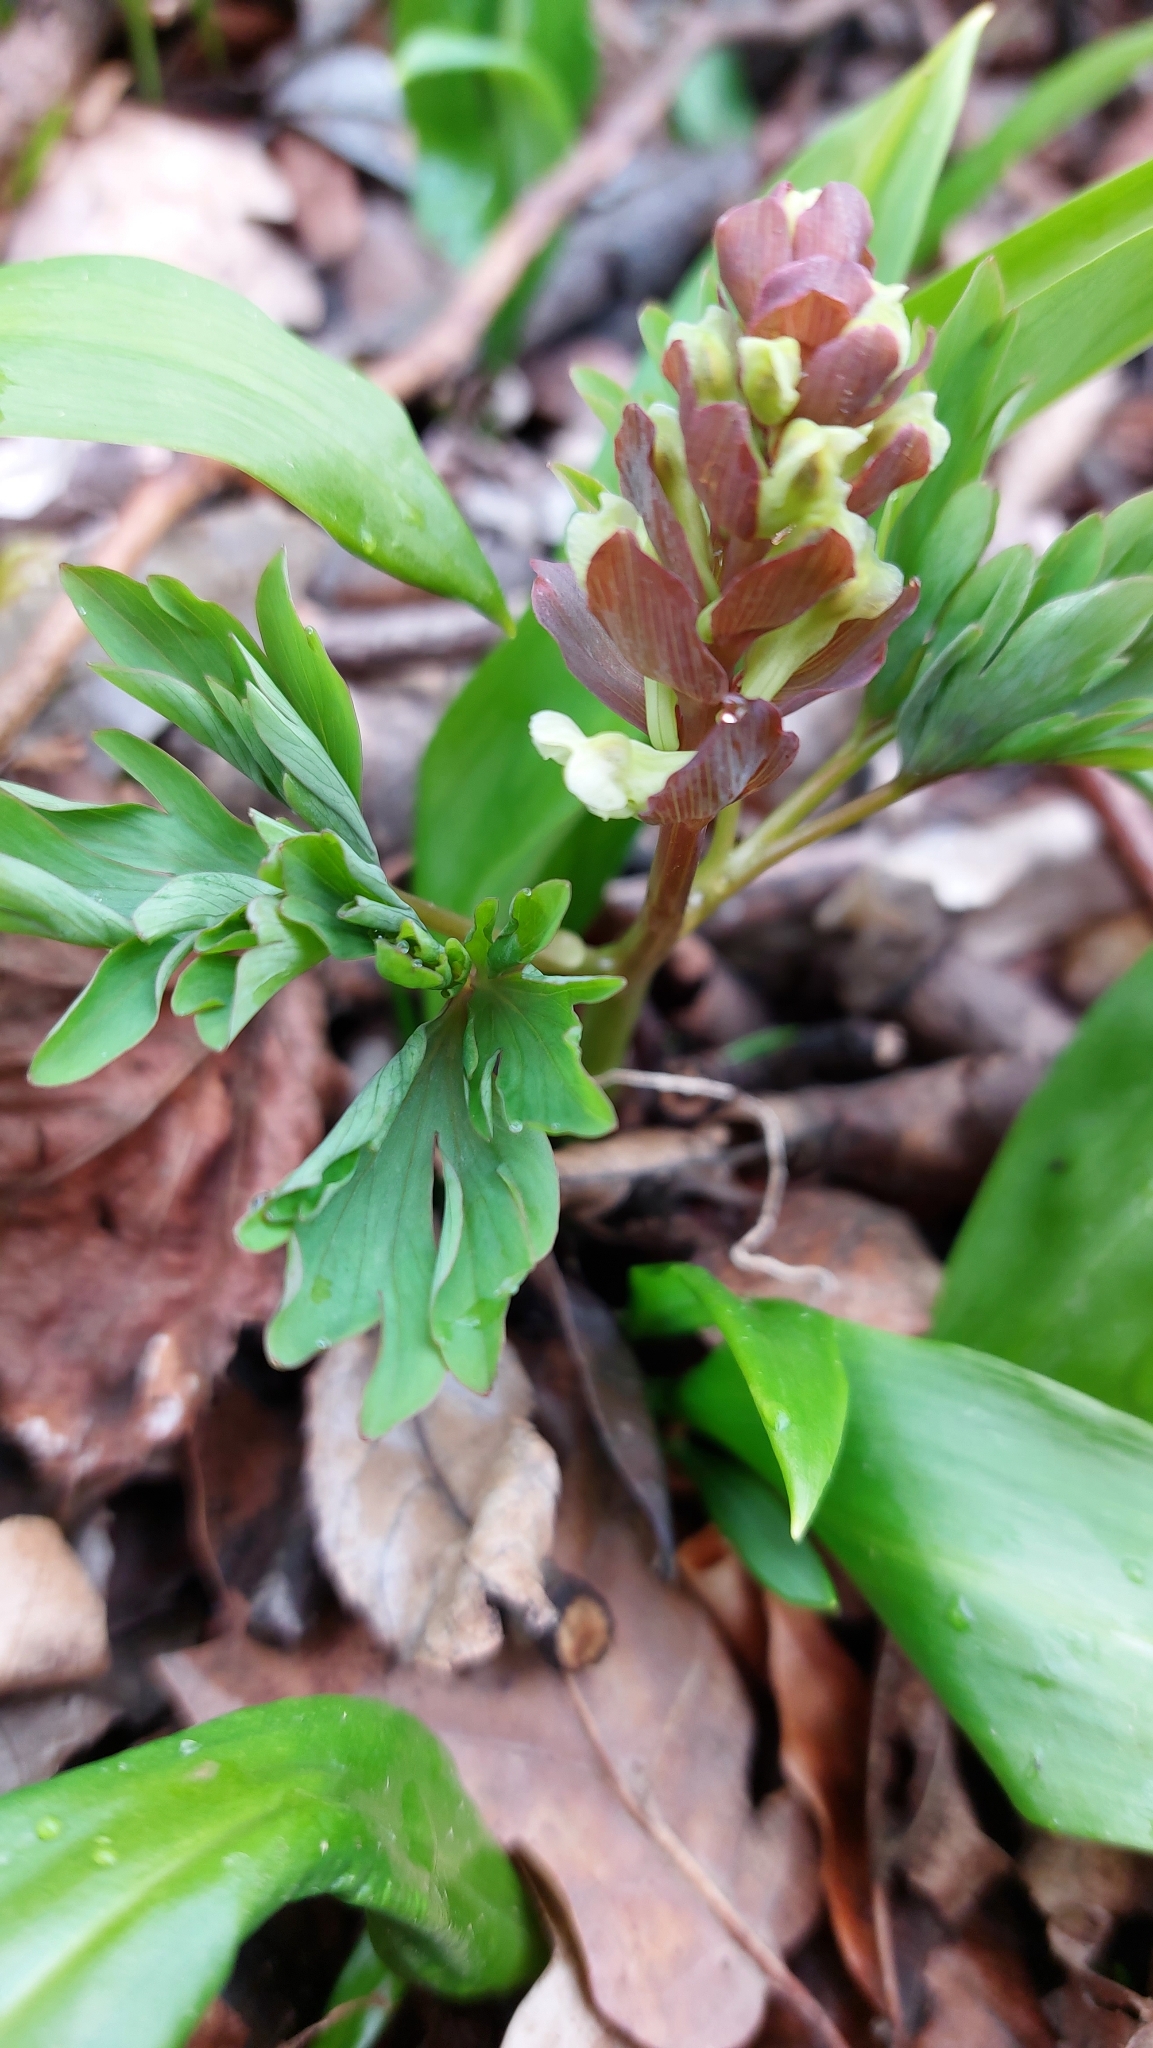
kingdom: Plantae
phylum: Tracheophyta
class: Magnoliopsida
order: Ranunculales
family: Papaveraceae
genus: Corydalis
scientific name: Corydalis cava
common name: Hollowroot
